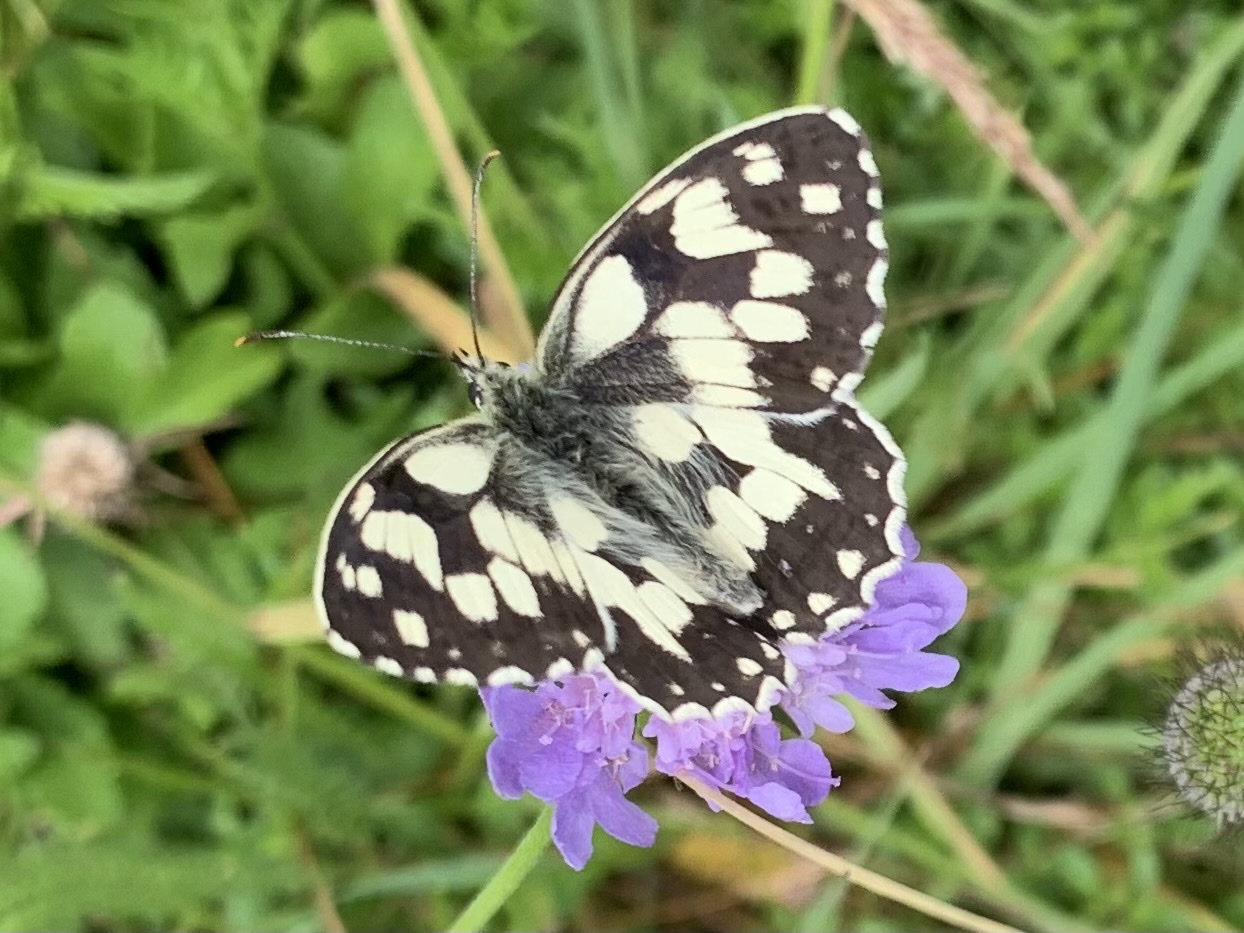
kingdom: Animalia
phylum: Arthropoda
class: Insecta
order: Lepidoptera
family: Nymphalidae
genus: Melanargia
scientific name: Melanargia galathea
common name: Marbled white
